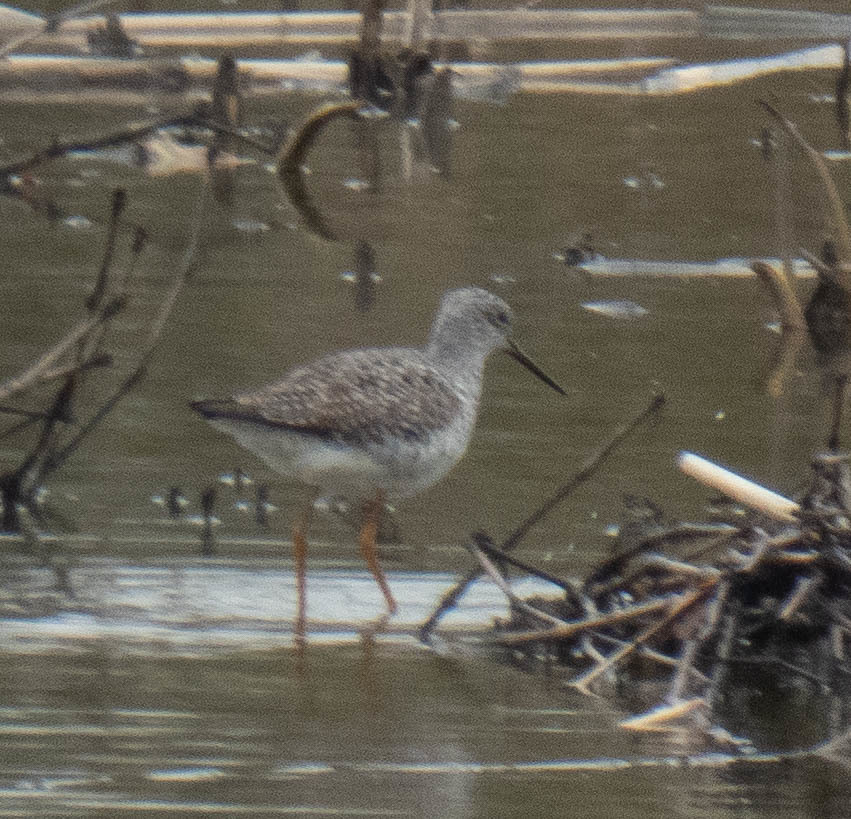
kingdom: Animalia
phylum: Chordata
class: Aves
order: Charadriiformes
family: Scolopacidae
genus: Tringa
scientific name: Tringa melanoleuca
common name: Greater yellowlegs
